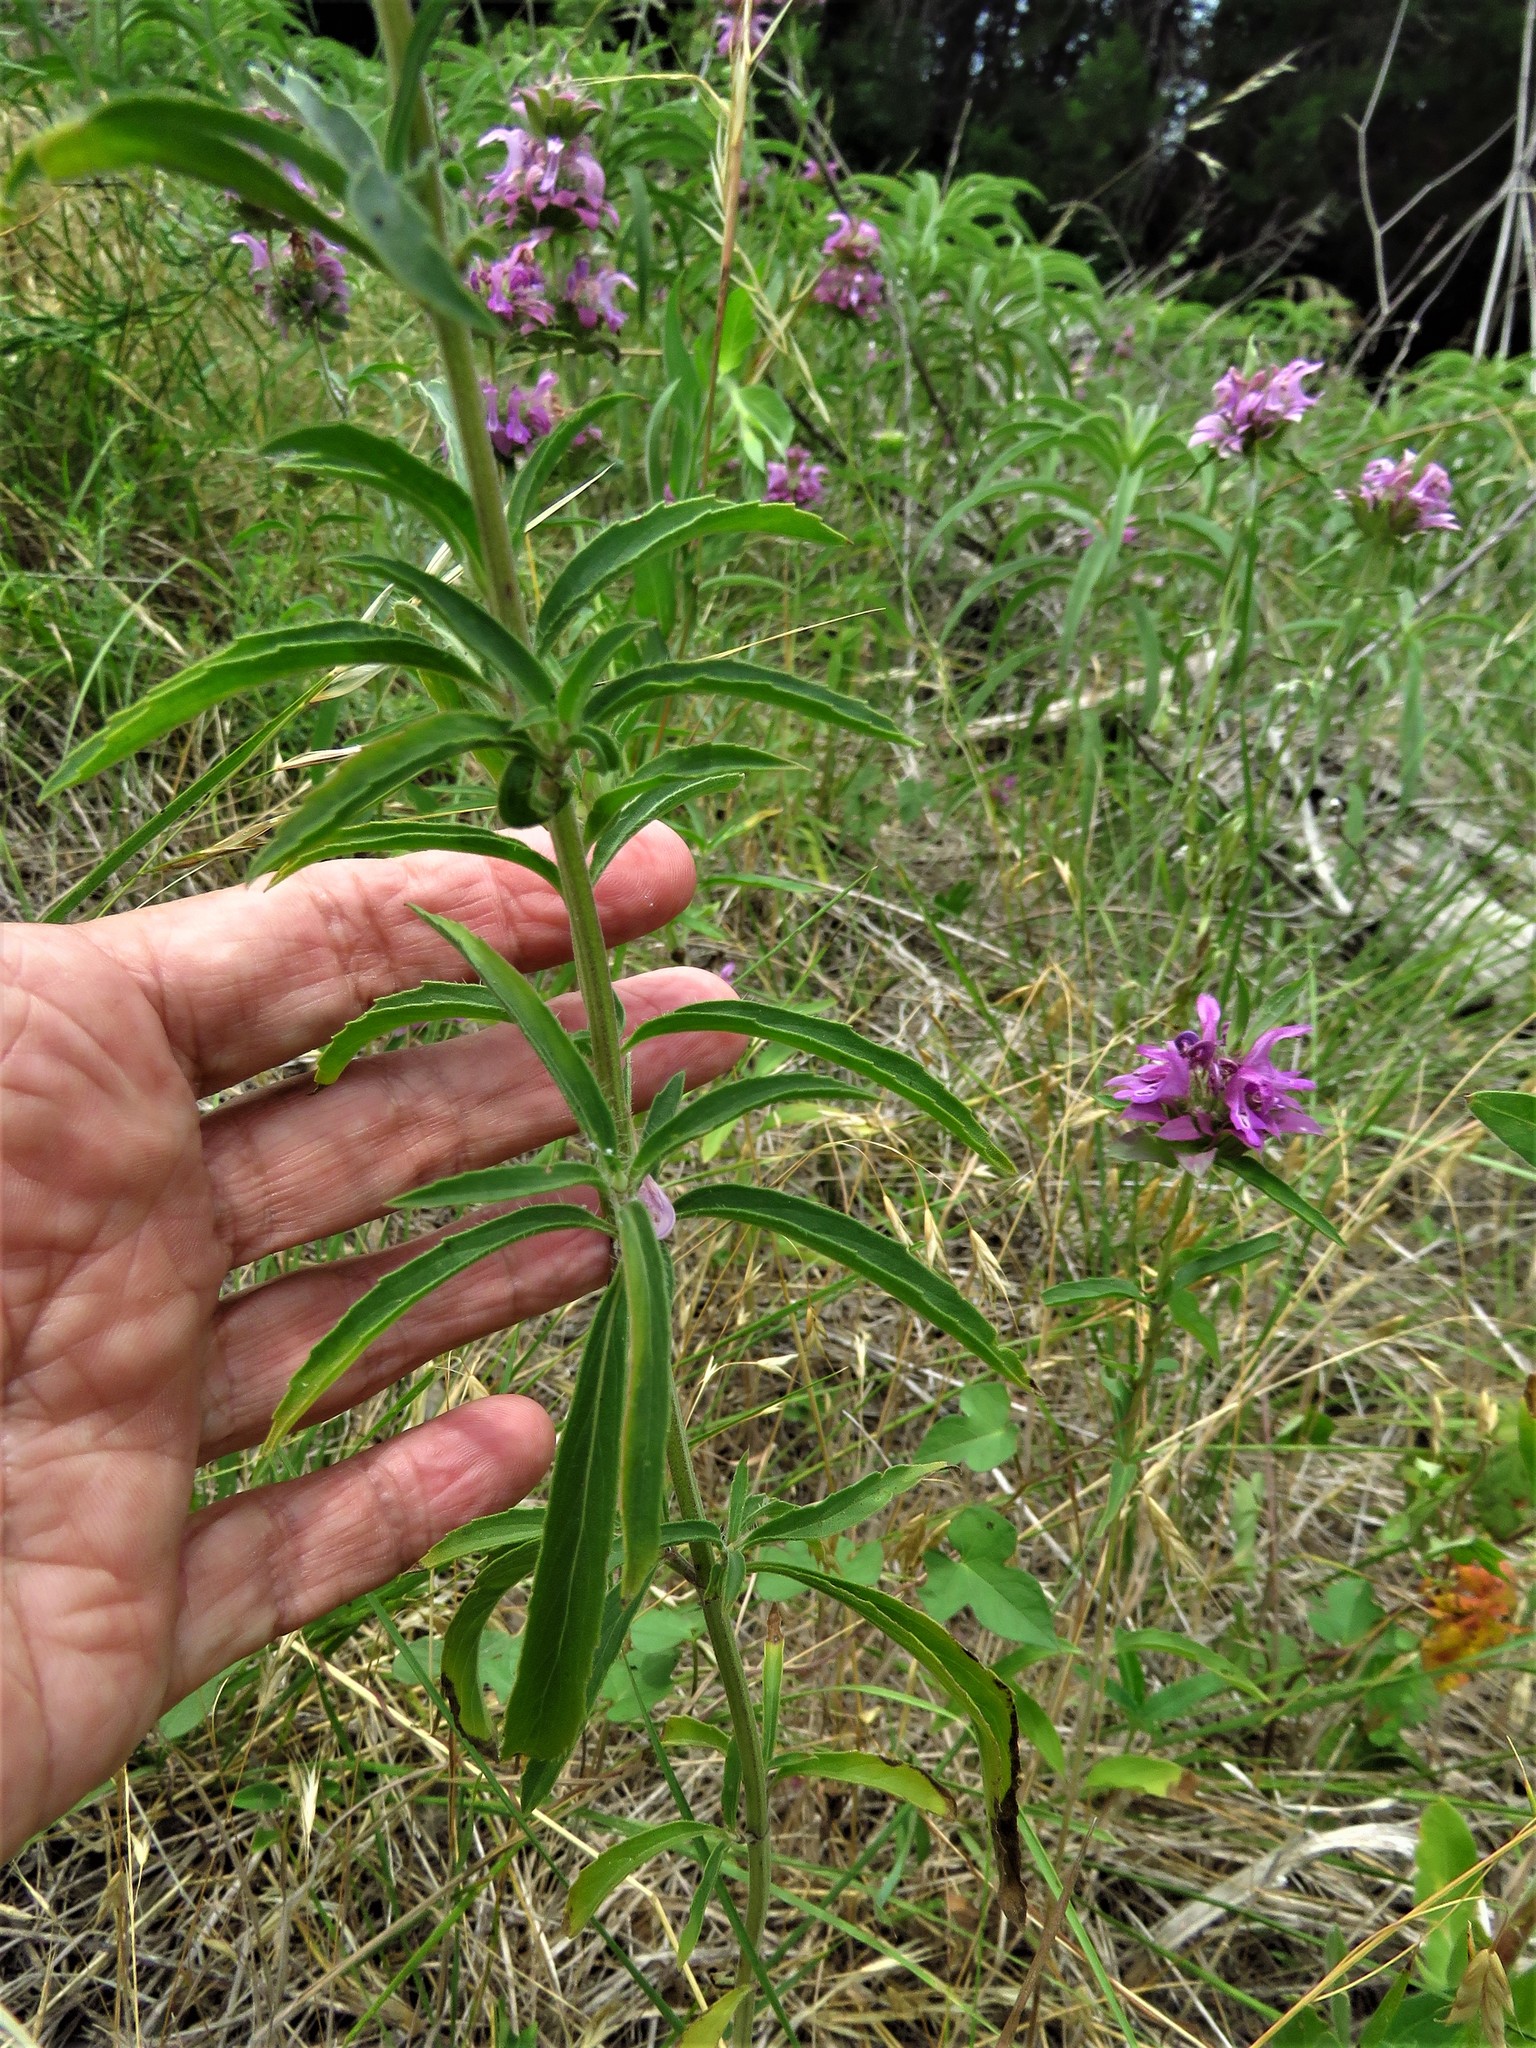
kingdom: Plantae
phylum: Tracheophyta
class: Magnoliopsida
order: Lamiales
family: Lamiaceae
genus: Monarda
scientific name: Monarda citriodora
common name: Lemon beebalm
